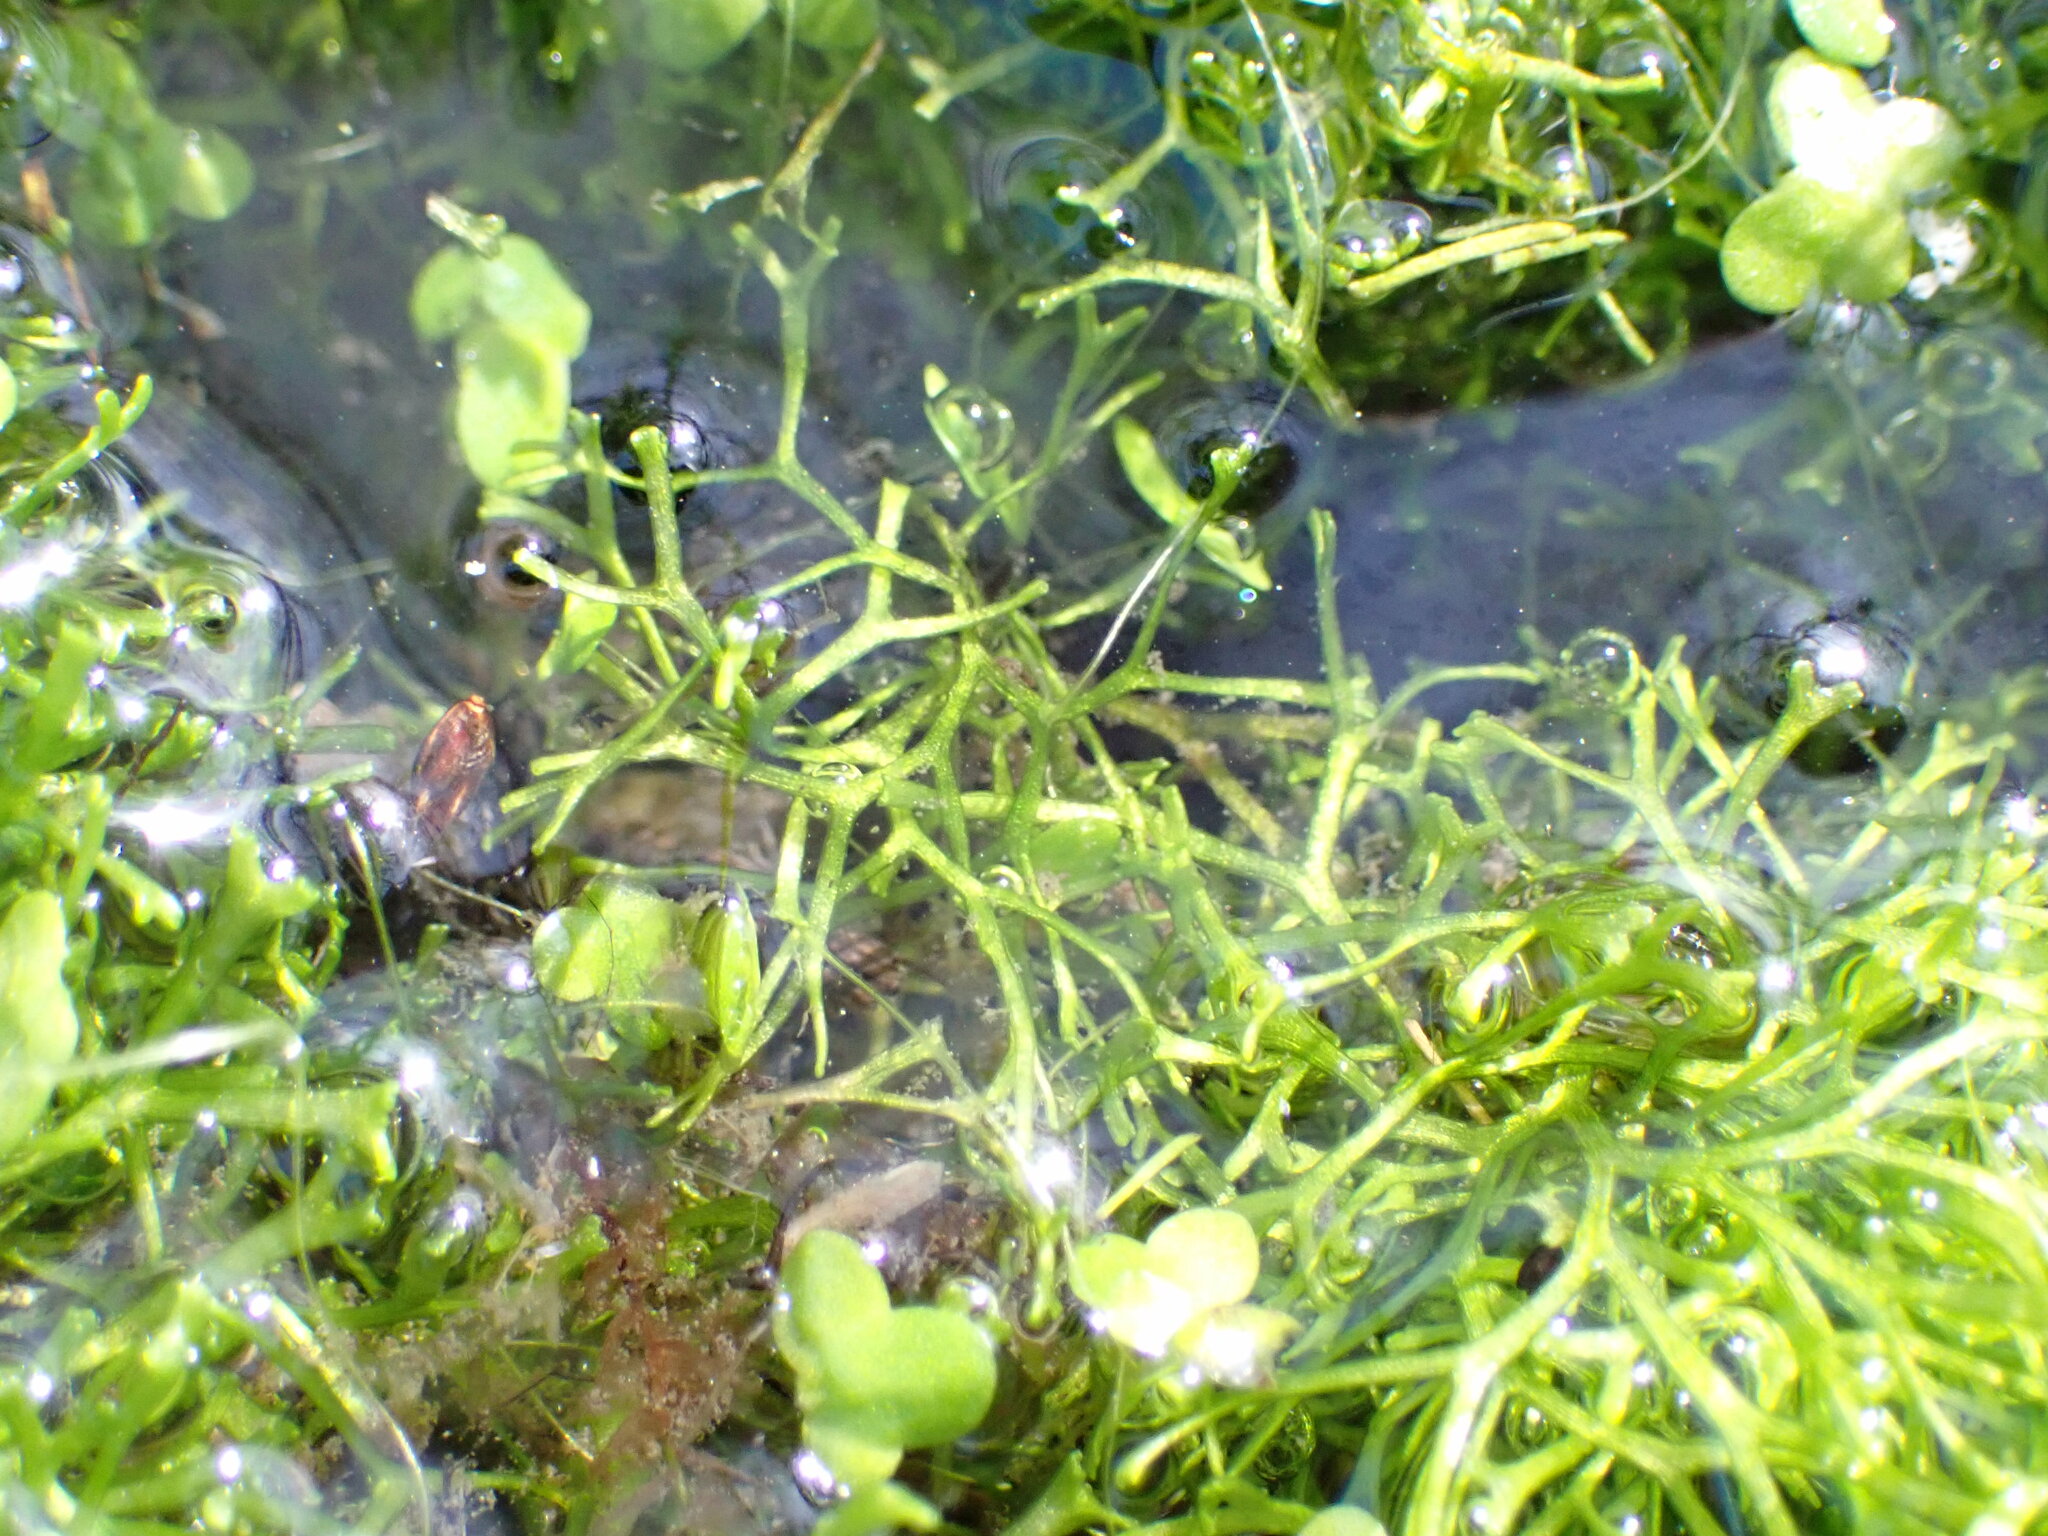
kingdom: Plantae
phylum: Marchantiophyta
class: Marchantiopsida
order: Marchantiales
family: Ricciaceae
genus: Riccia
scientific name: Riccia fluitans
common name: Floating crystalwort
